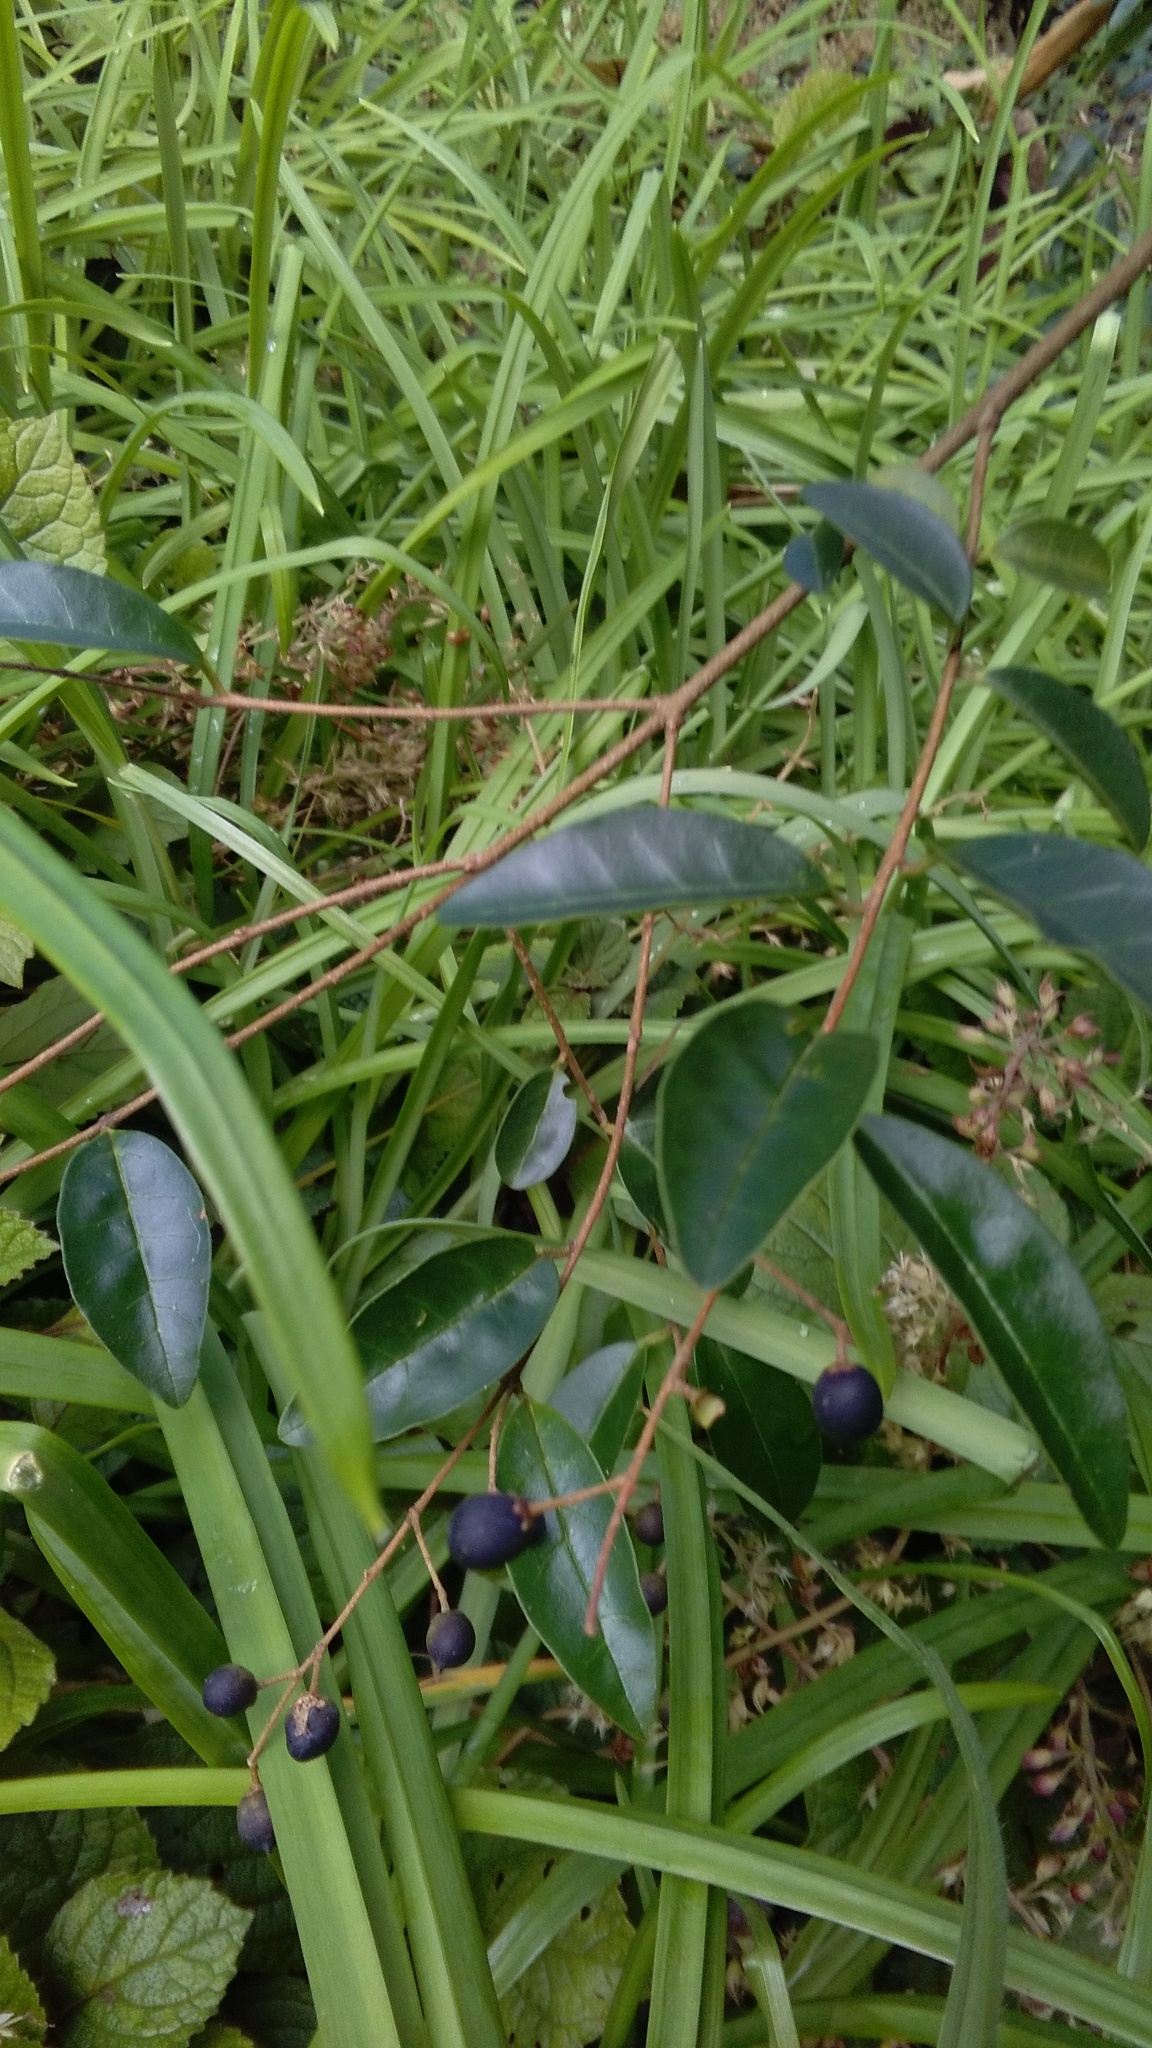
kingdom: Plantae
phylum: Tracheophyta
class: Magnoliopsida
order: Lamiales
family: Oleaceae
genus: Ligustrum
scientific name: Ligustrum sinense
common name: Chinese privet
